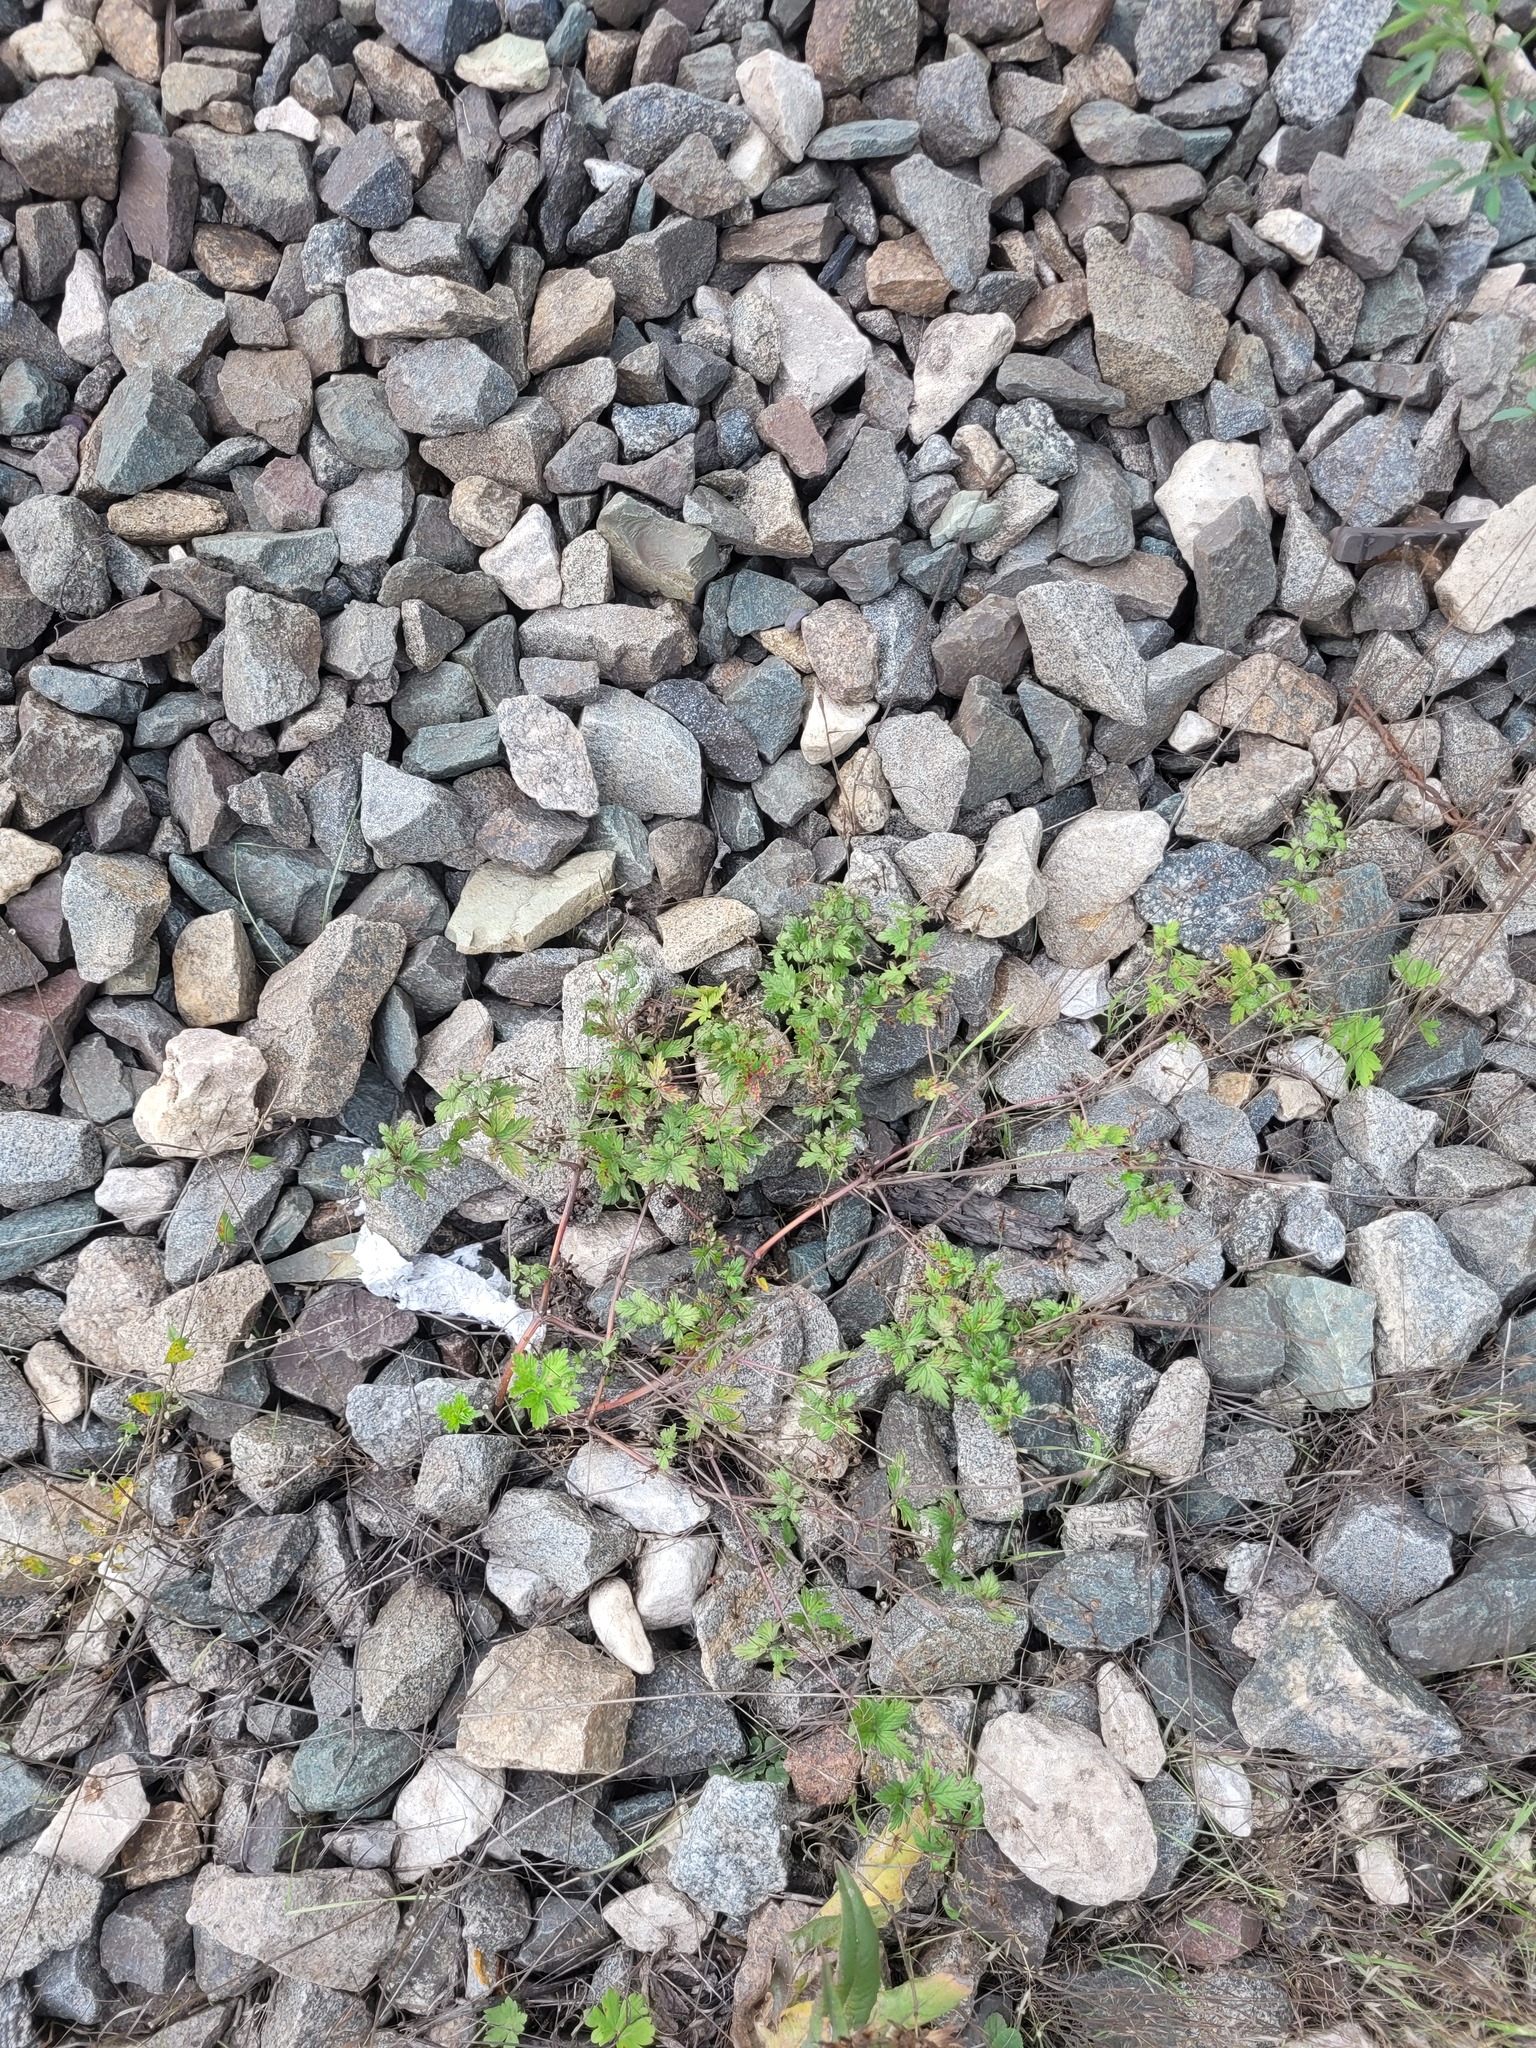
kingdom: Plantae
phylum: Tracheophyta
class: Magnoliopsida
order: Geraniales
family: Geraniaceae
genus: Geranium
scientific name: Geranium sibiricum
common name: Siberian crane's-bill
